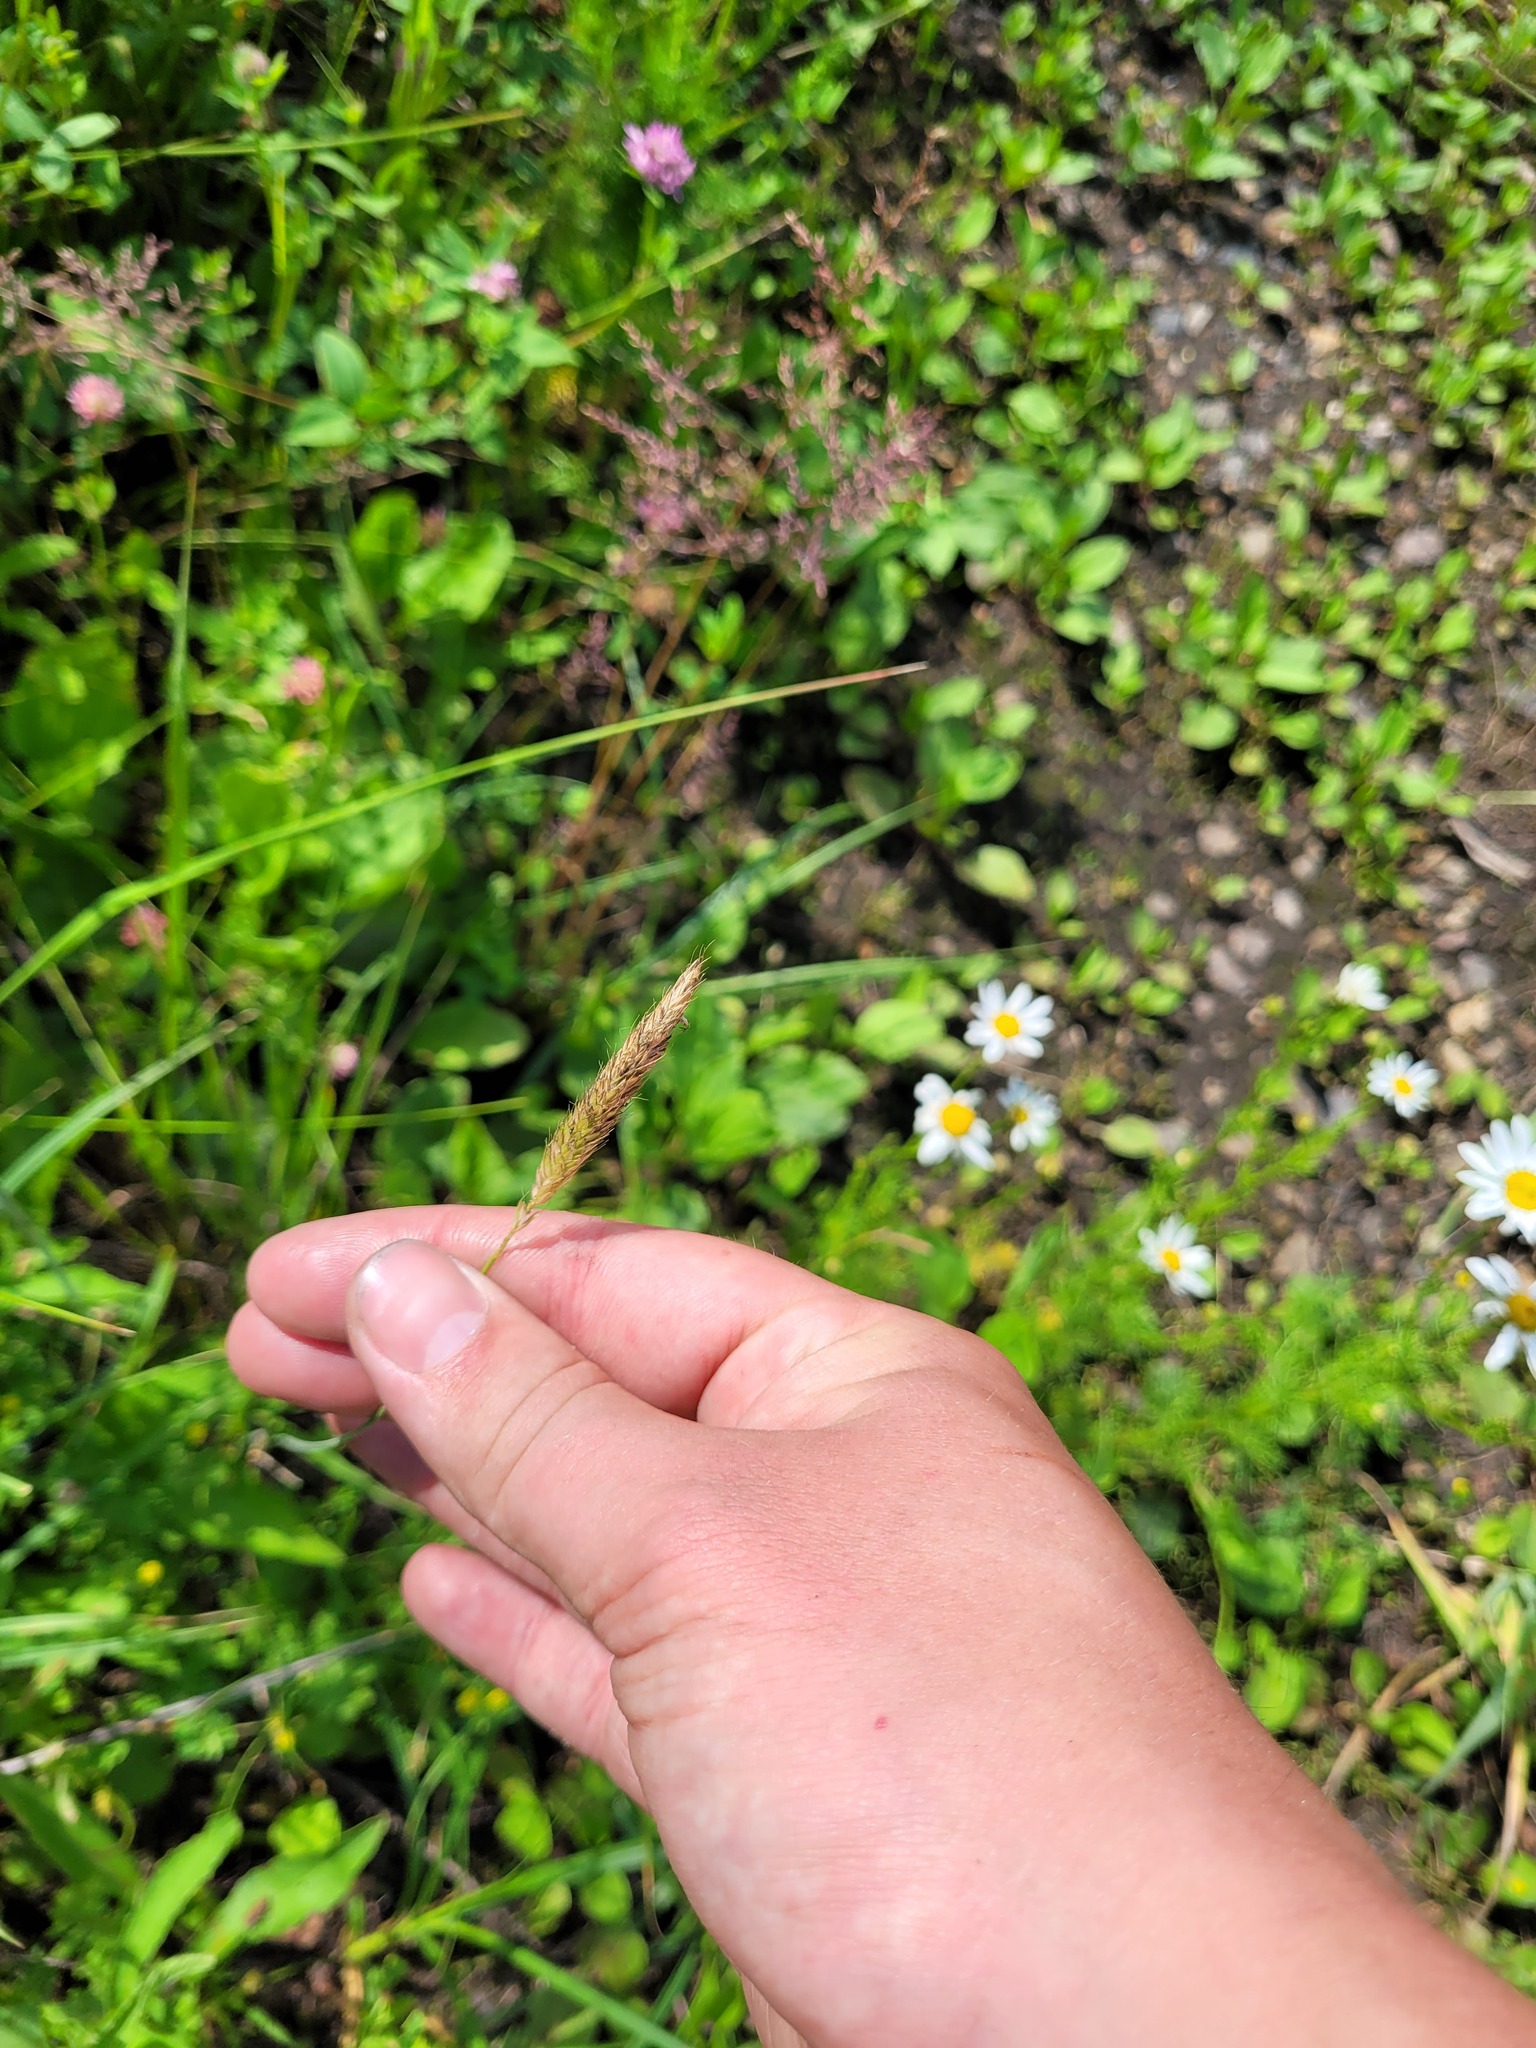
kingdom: Plantae
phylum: Tracheophyta
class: Liliopsida
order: Poales
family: Poaceae
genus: Alopecurus
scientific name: Alopecurus pratensis
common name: Meadow foxtail
